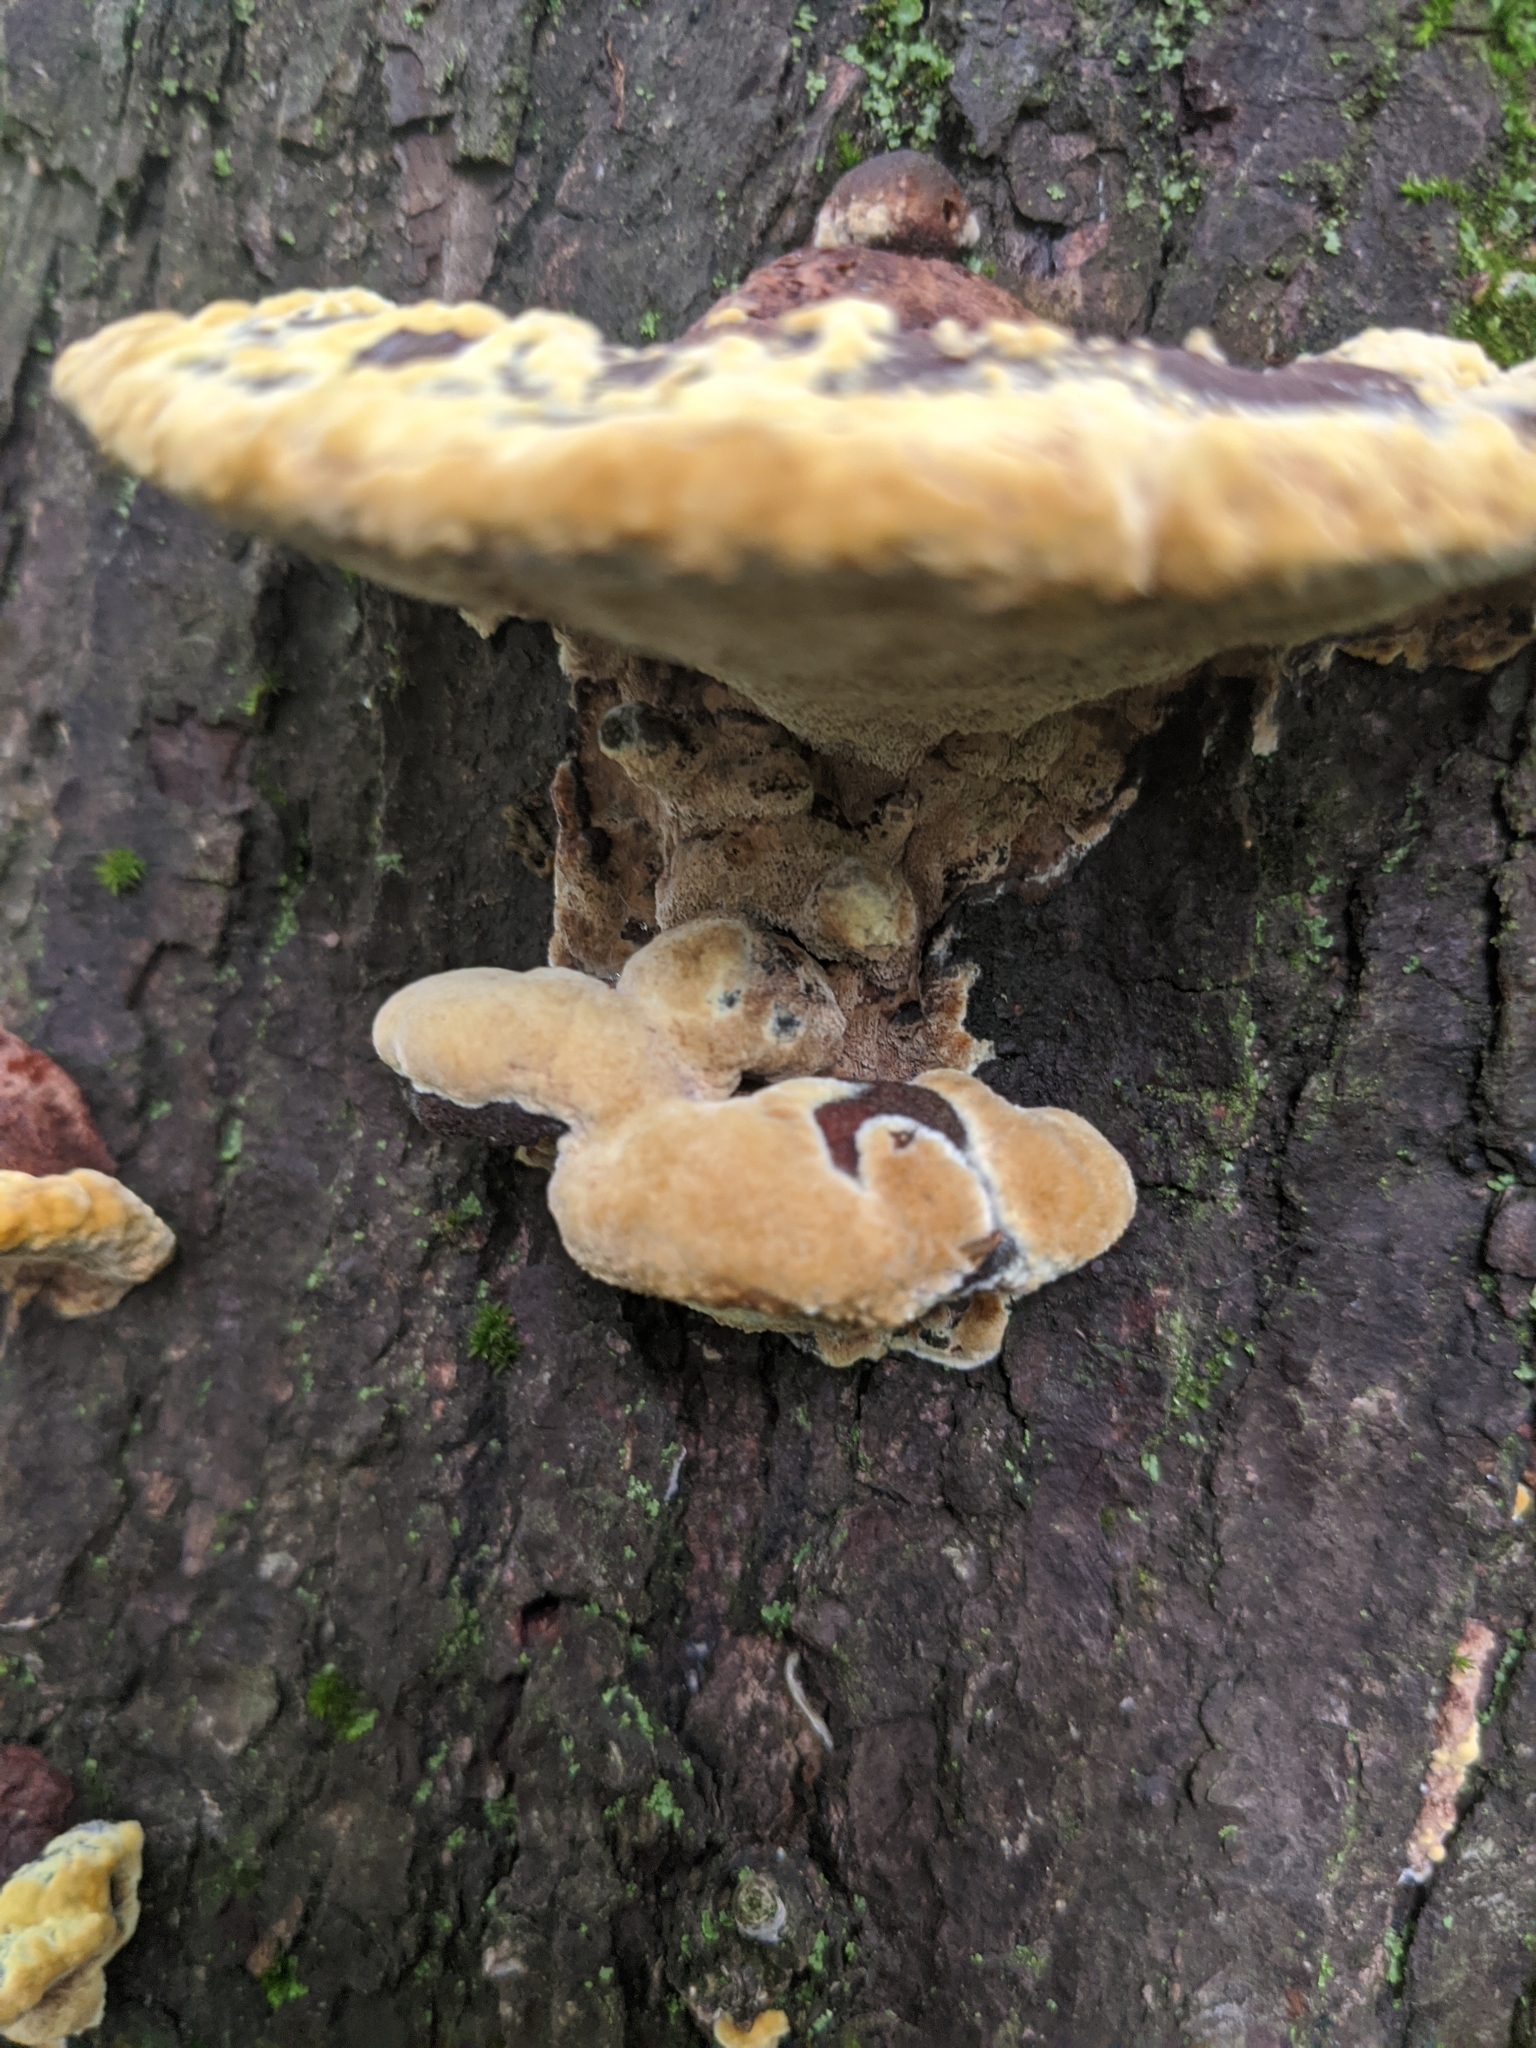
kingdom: Fungi
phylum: Basidiomycota
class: Agaricomycetes
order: Hymenochaetales
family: Hymenochaetaceae
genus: Phellinus
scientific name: Phellinus gilvus
